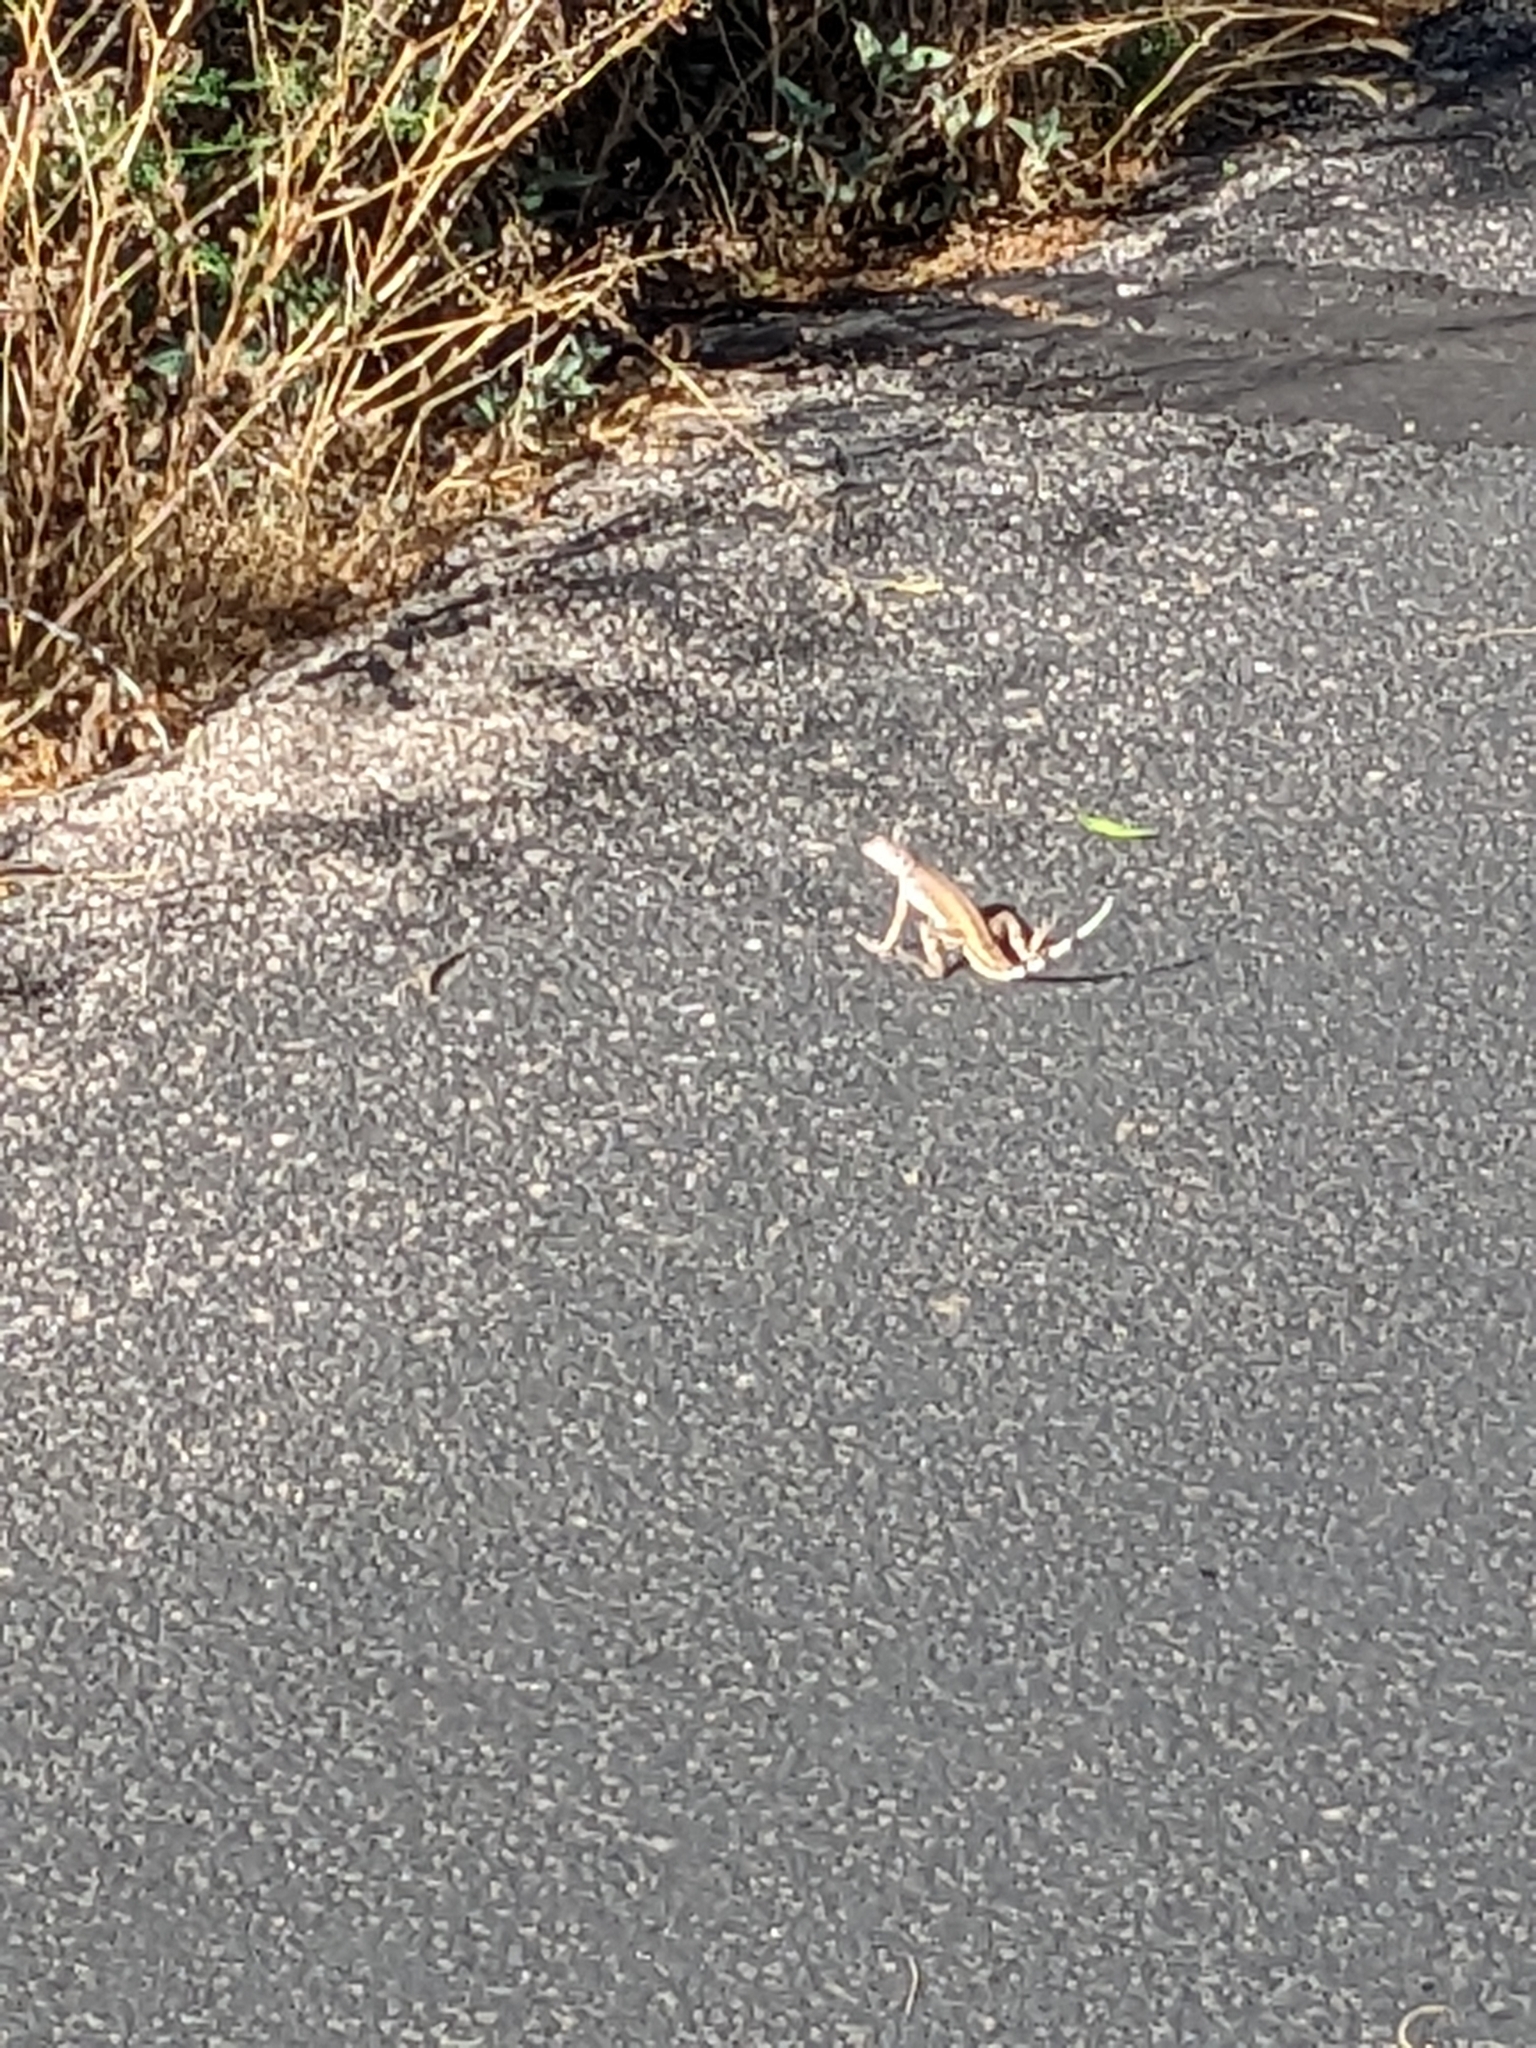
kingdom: Animalia
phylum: Chordata
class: Squamata
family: Phrynosomatidae
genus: Callisaurus
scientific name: Callisaurus draconoides
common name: Zebra-tailed lizard
